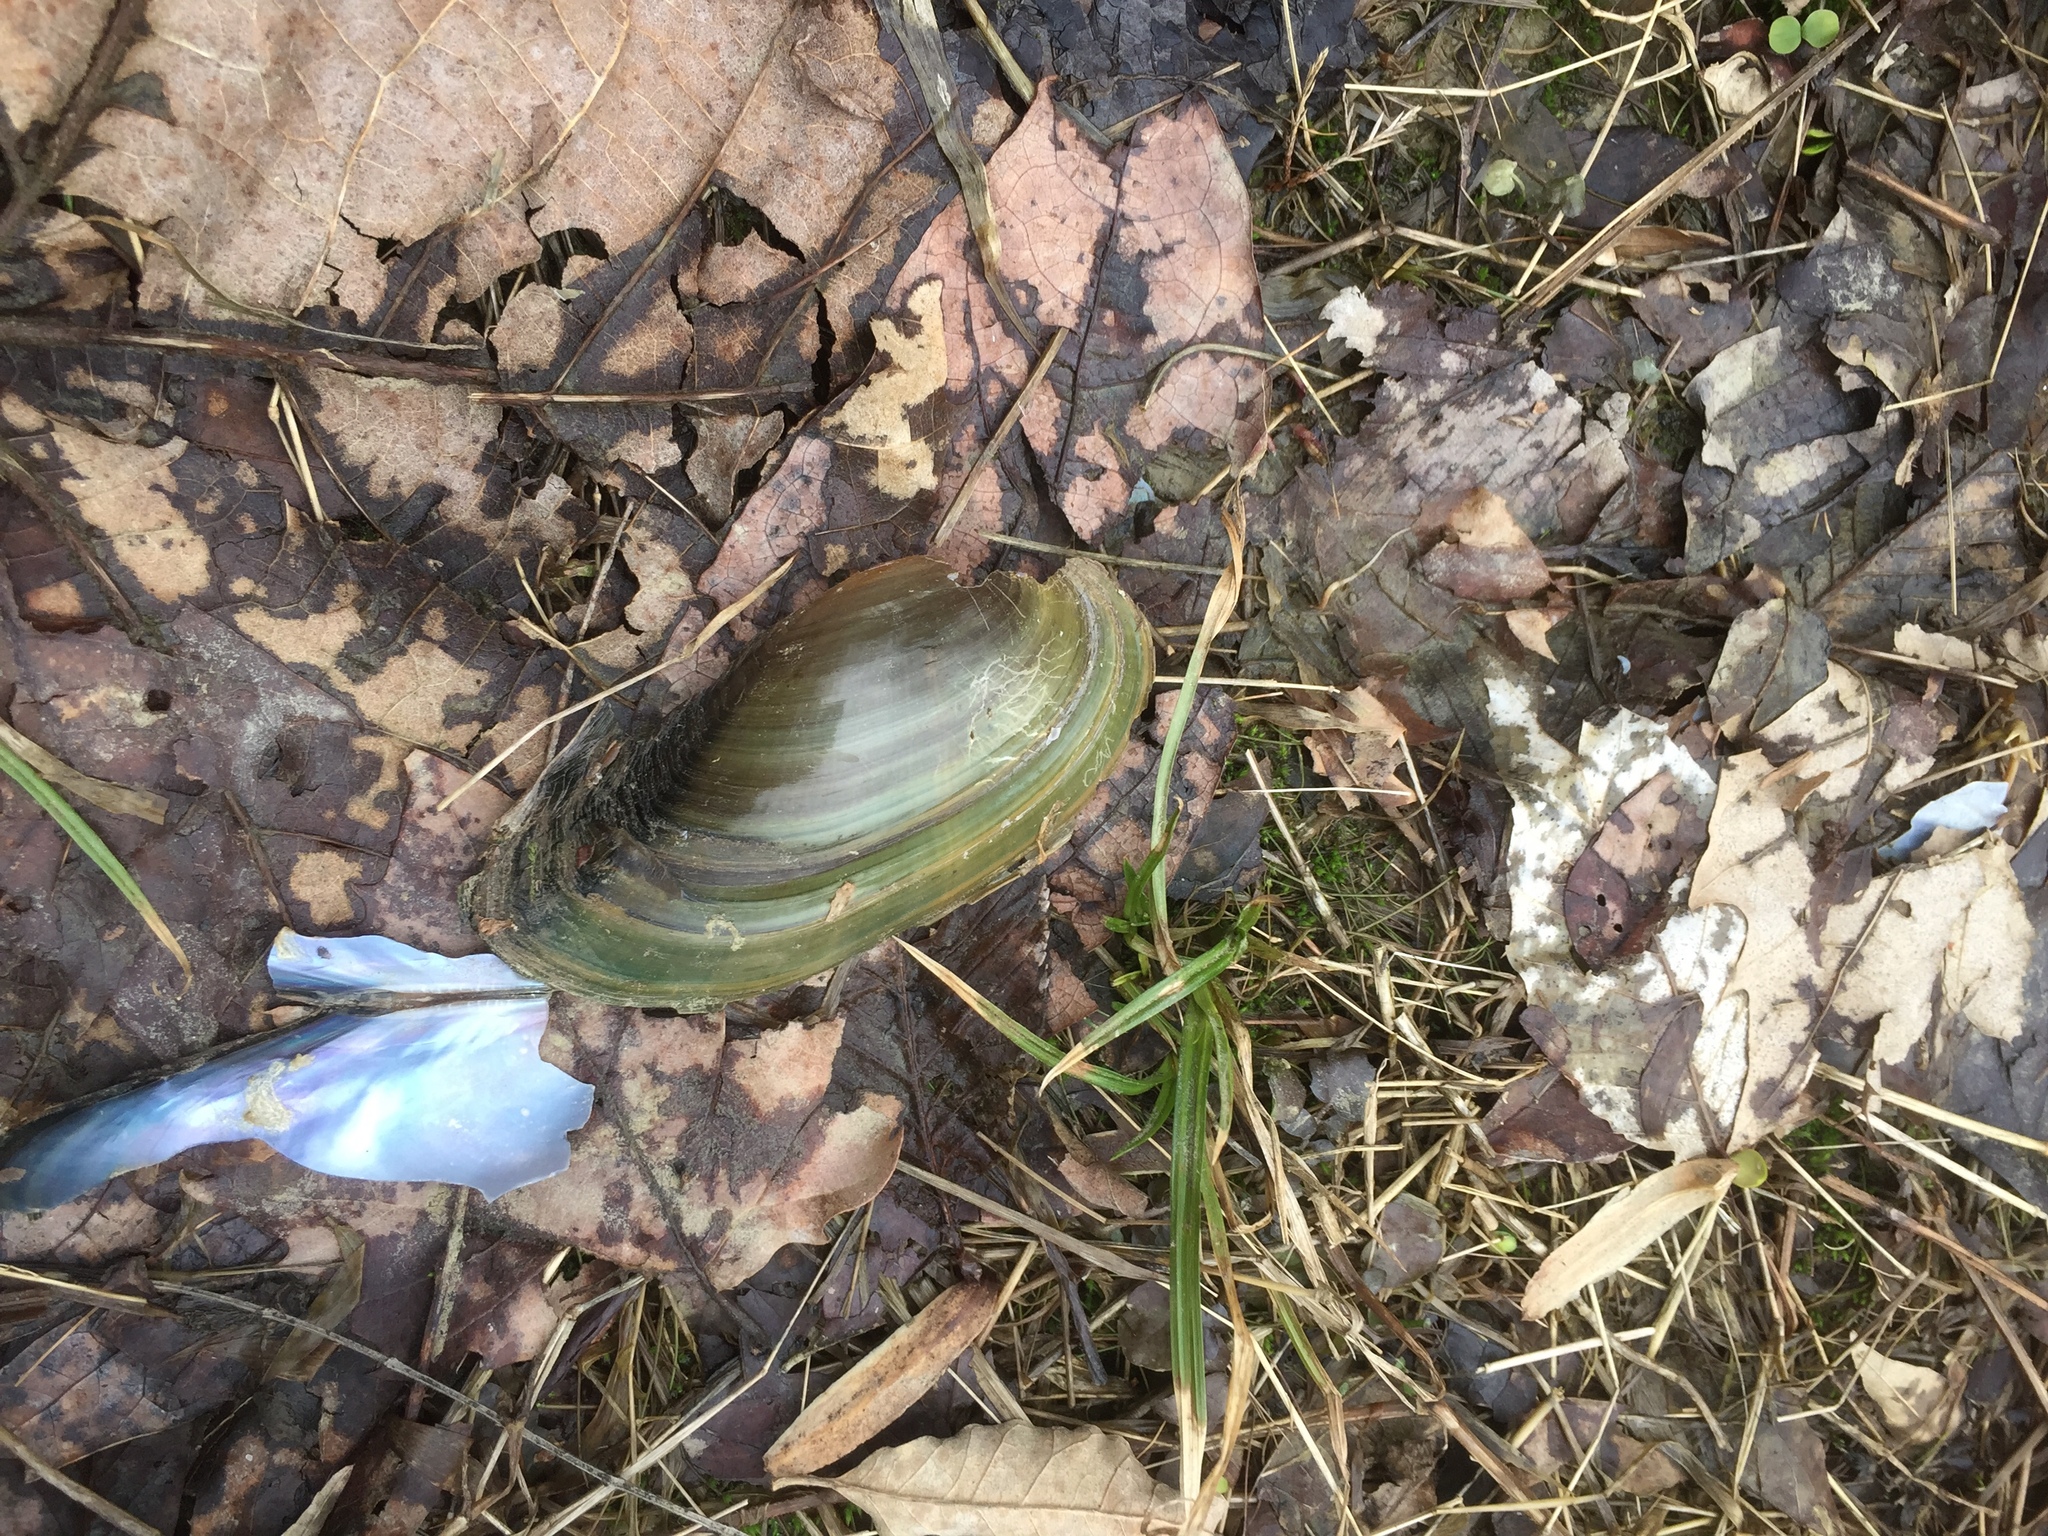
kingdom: Animalia
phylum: Mollusca
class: Bivalvia
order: Unionida
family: Unionidae
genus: Utterbackia
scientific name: Utterbackia imbecillis
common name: Paper pondshell
